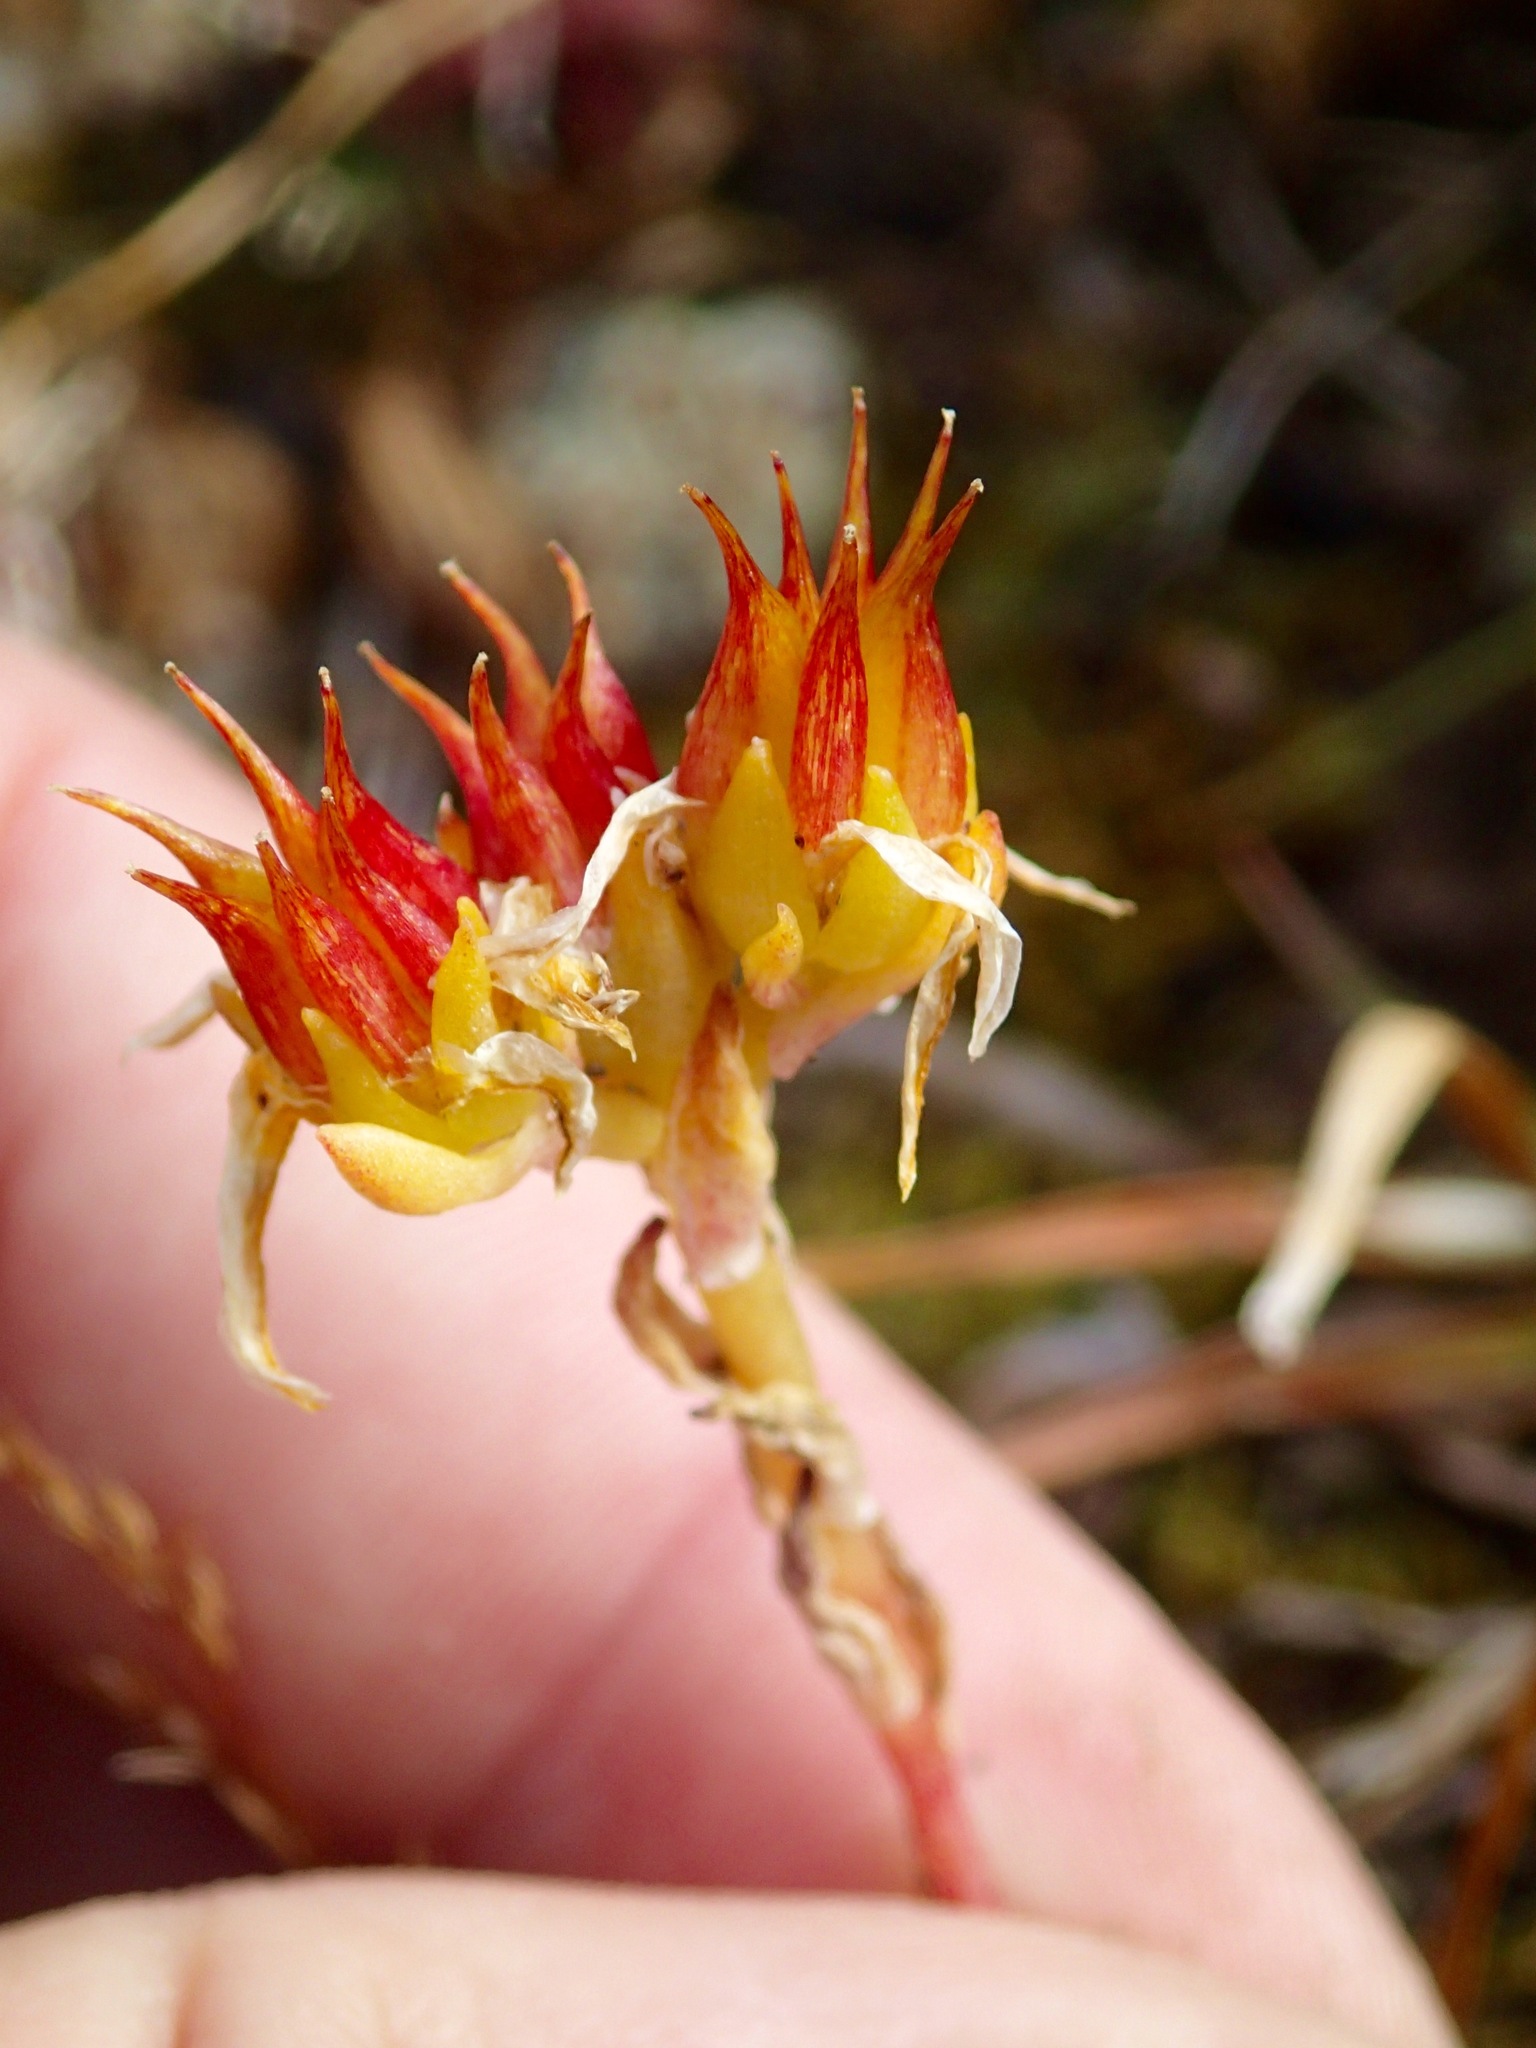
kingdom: Plantae
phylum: Tracheophyta
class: Magnoliopsida
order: Saxifragales
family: Crassulaceae
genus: Sedum
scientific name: Sedum lanceolatum
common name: Common stonecrop
